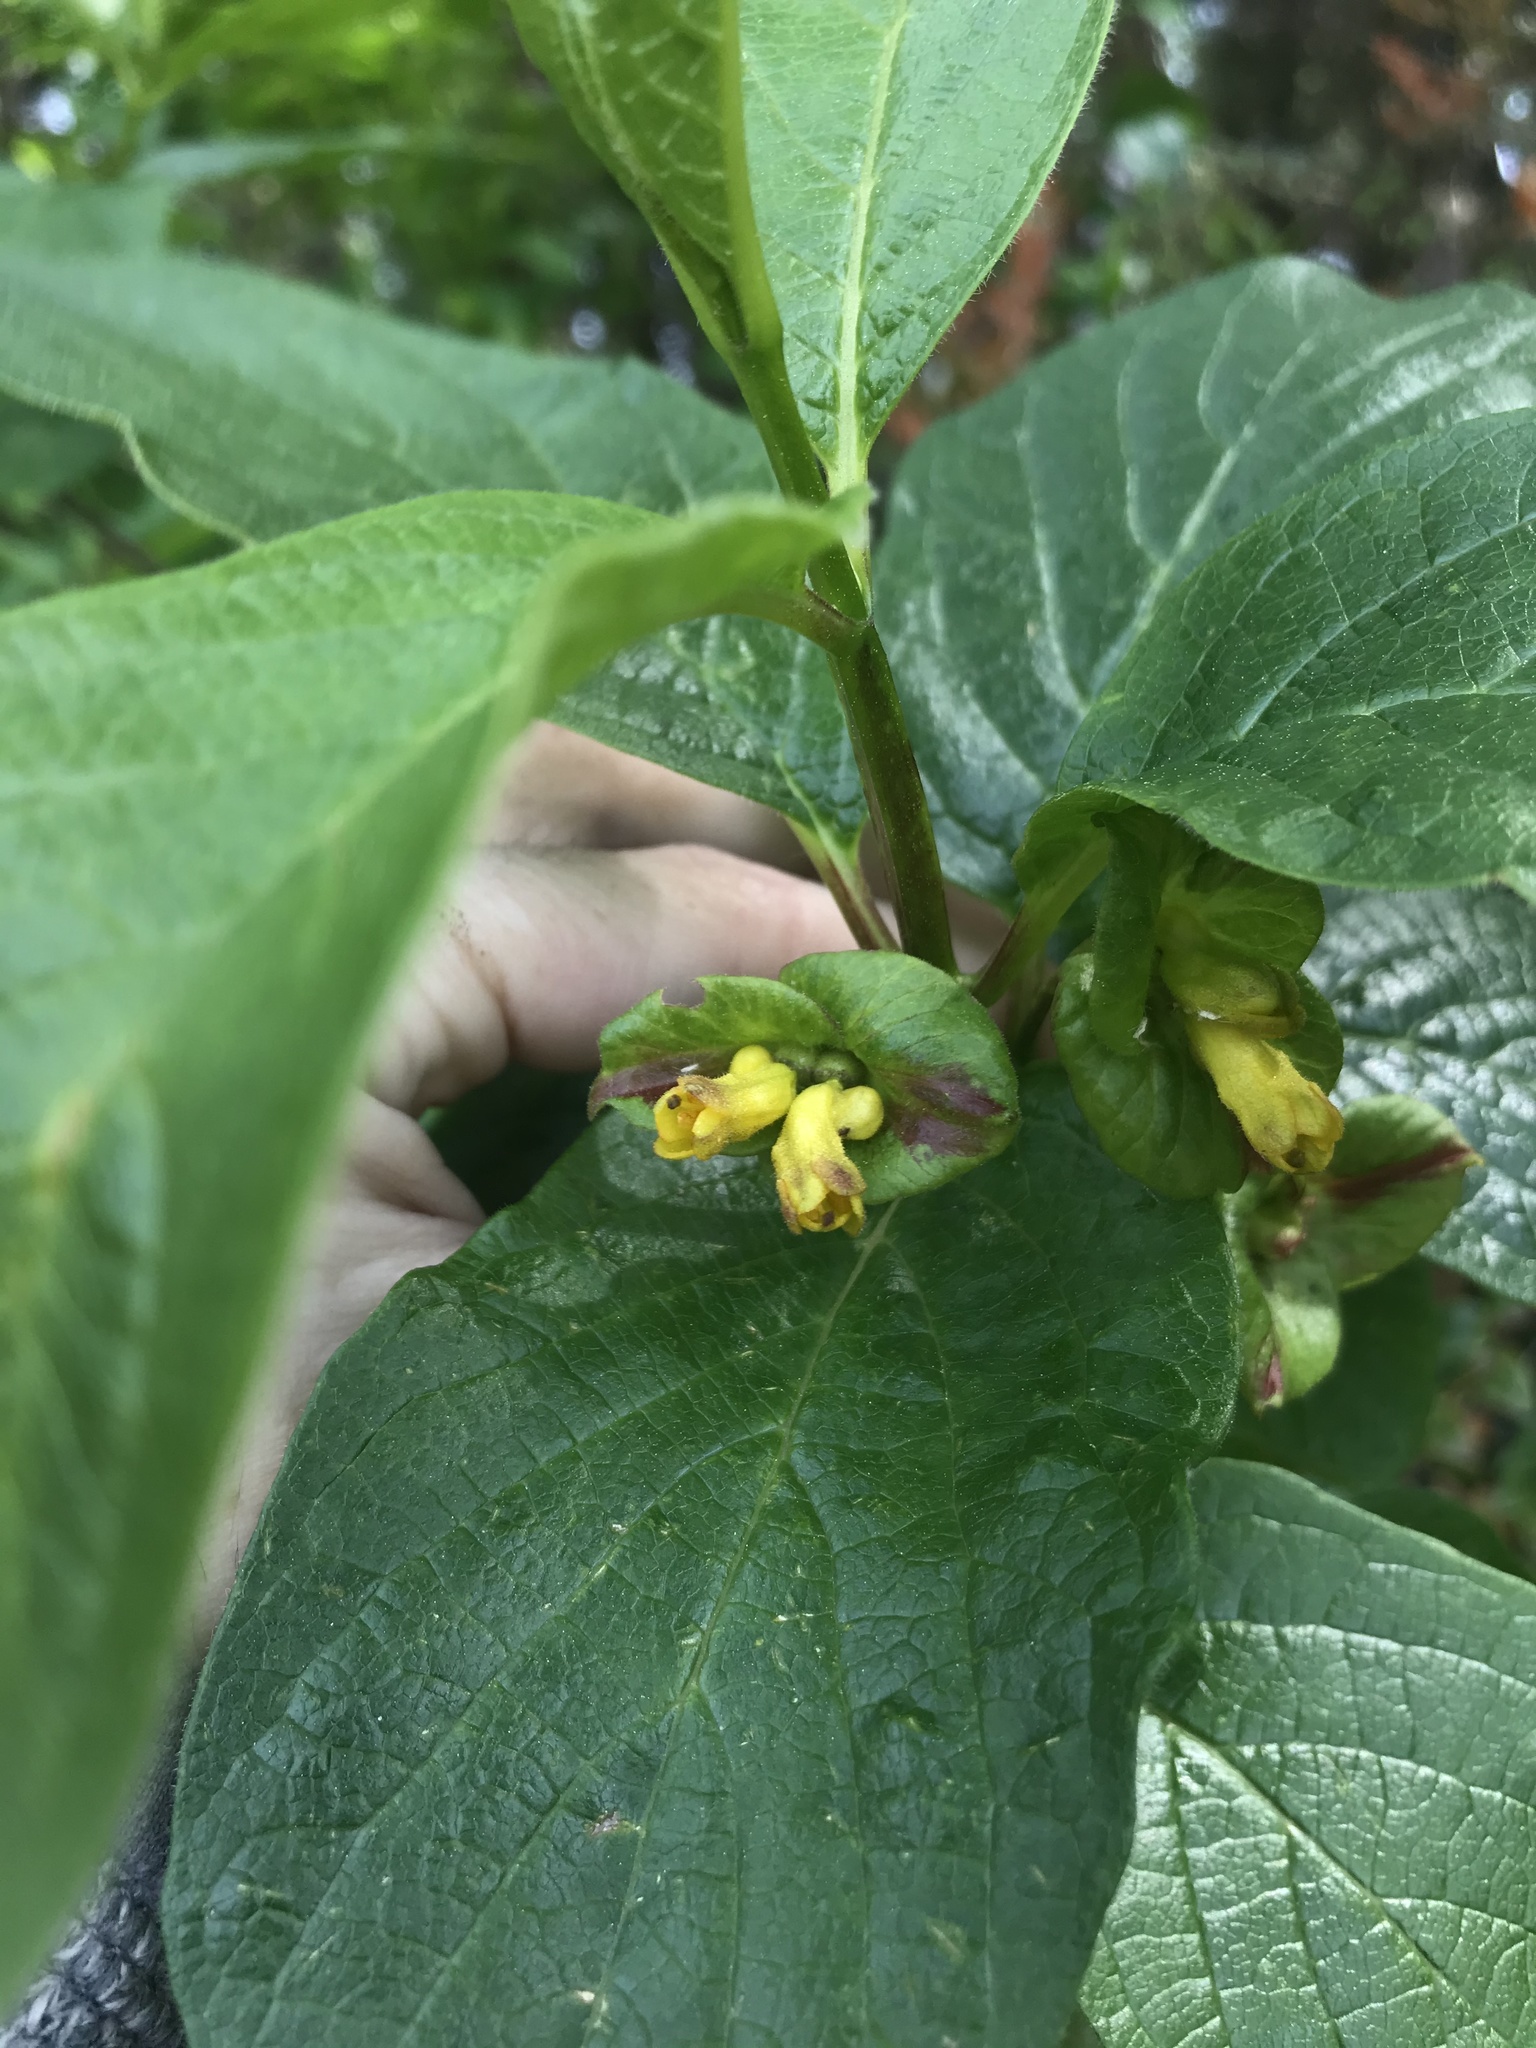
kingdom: Plantae
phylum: Tracheophyta
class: Magnoliopsida
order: Dipsacales
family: Caprifoliaceae
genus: Lonicera
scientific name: Lonicera involucrata
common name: Californian honeysuckle
